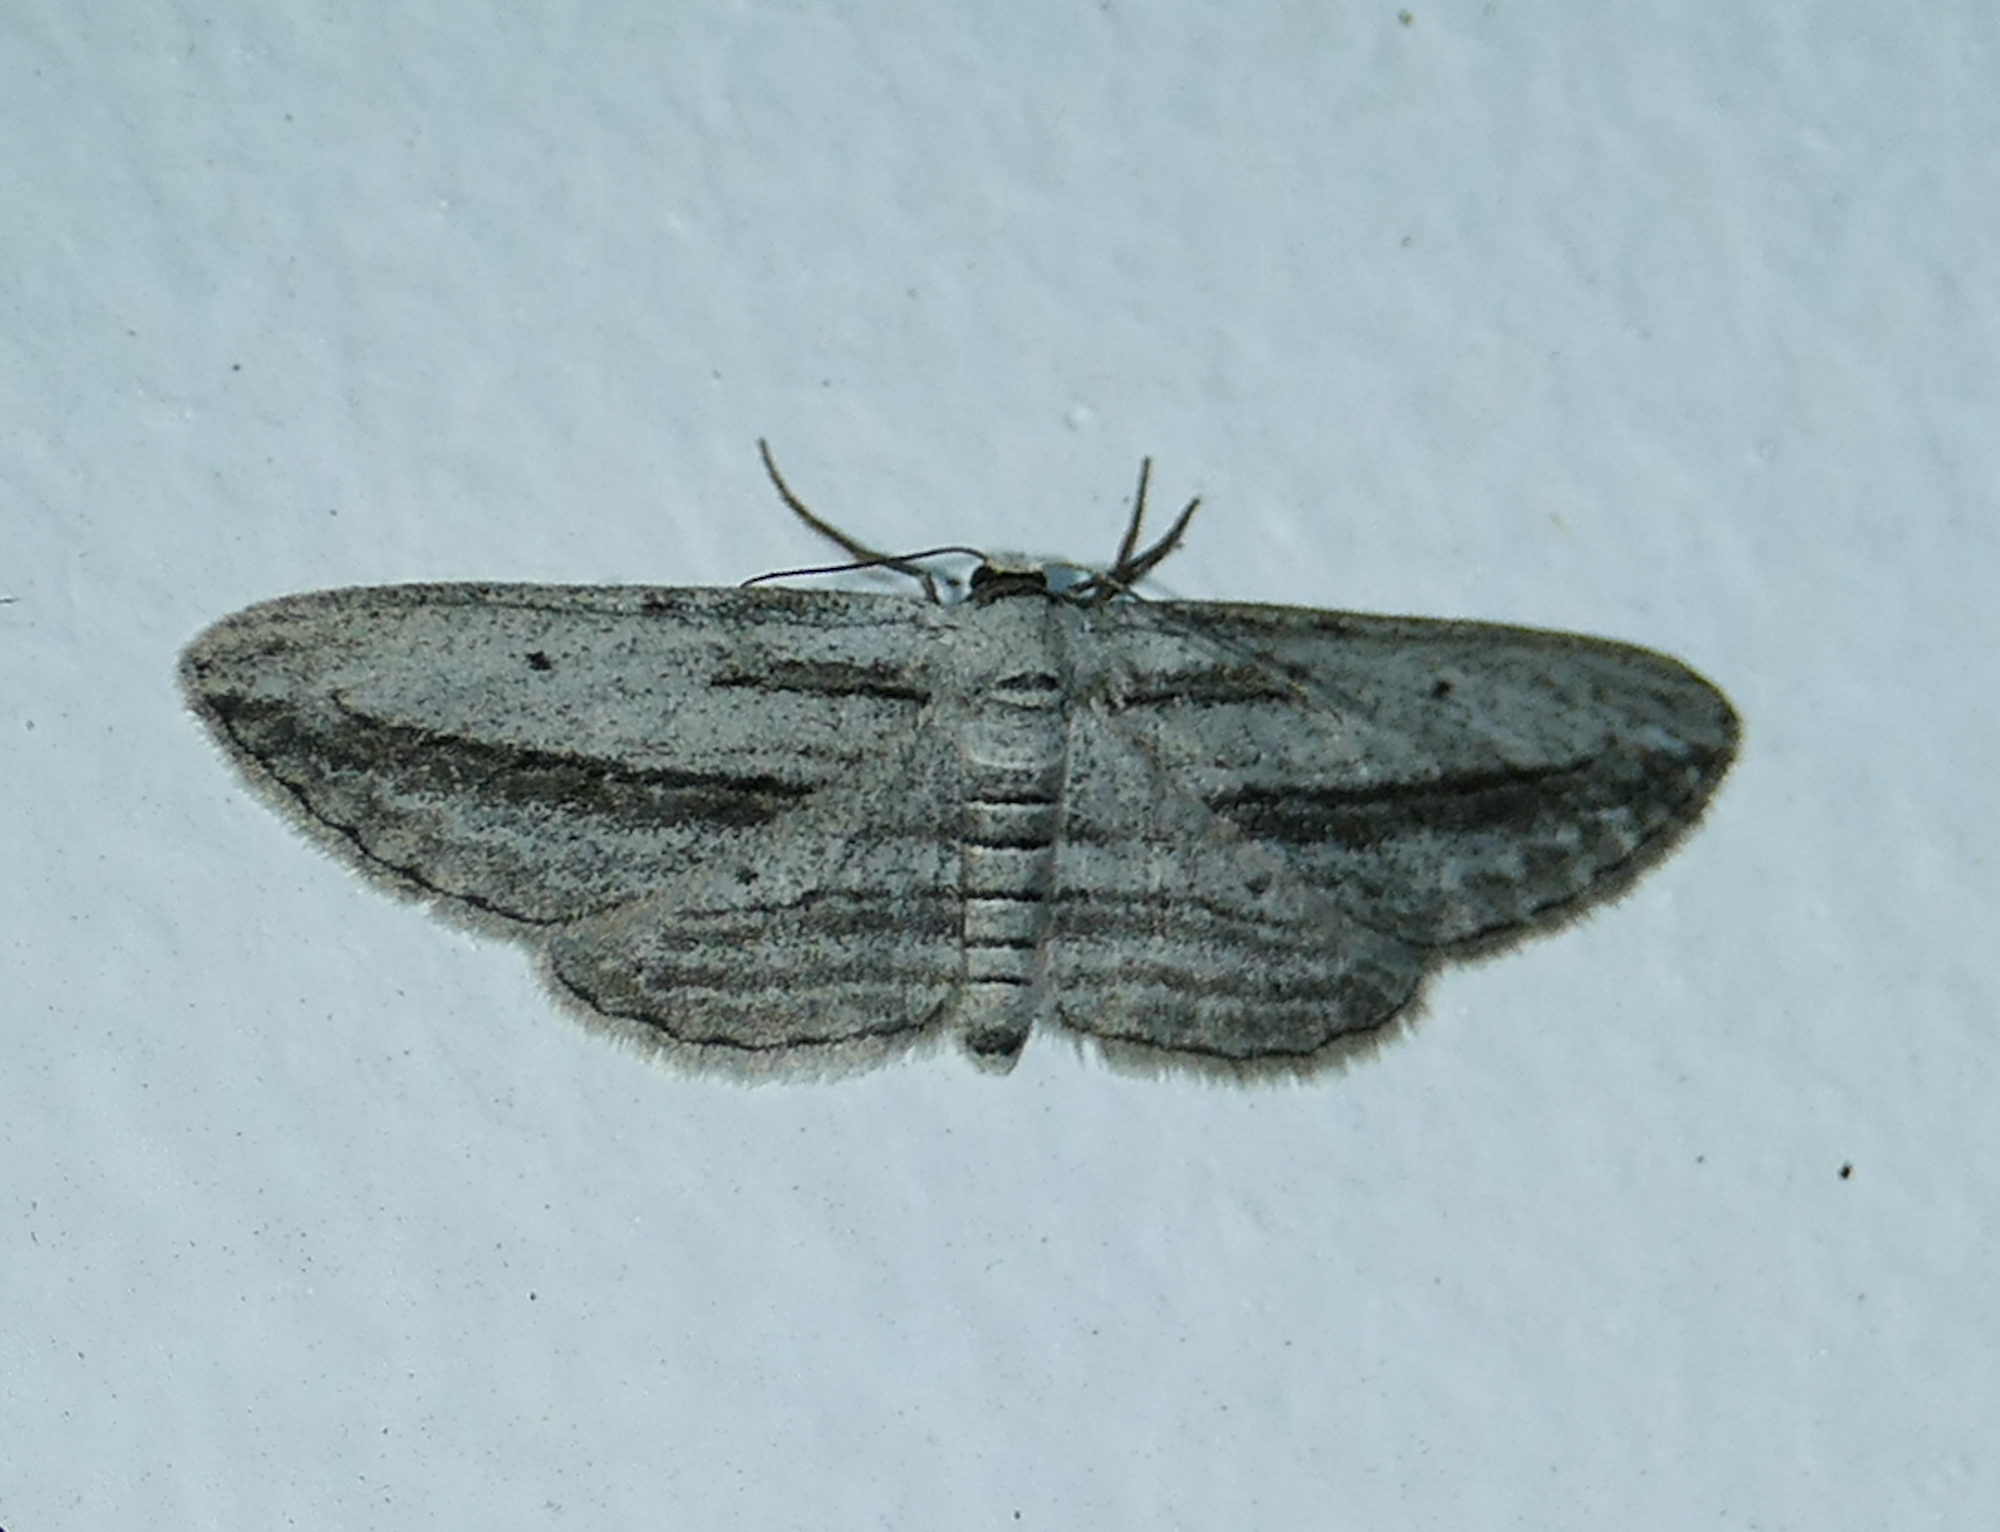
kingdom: Animalia
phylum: Arthropoda
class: Insecta
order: Lepidoptera
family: Geometridae
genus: Glena
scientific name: Glena quinquelinearia
